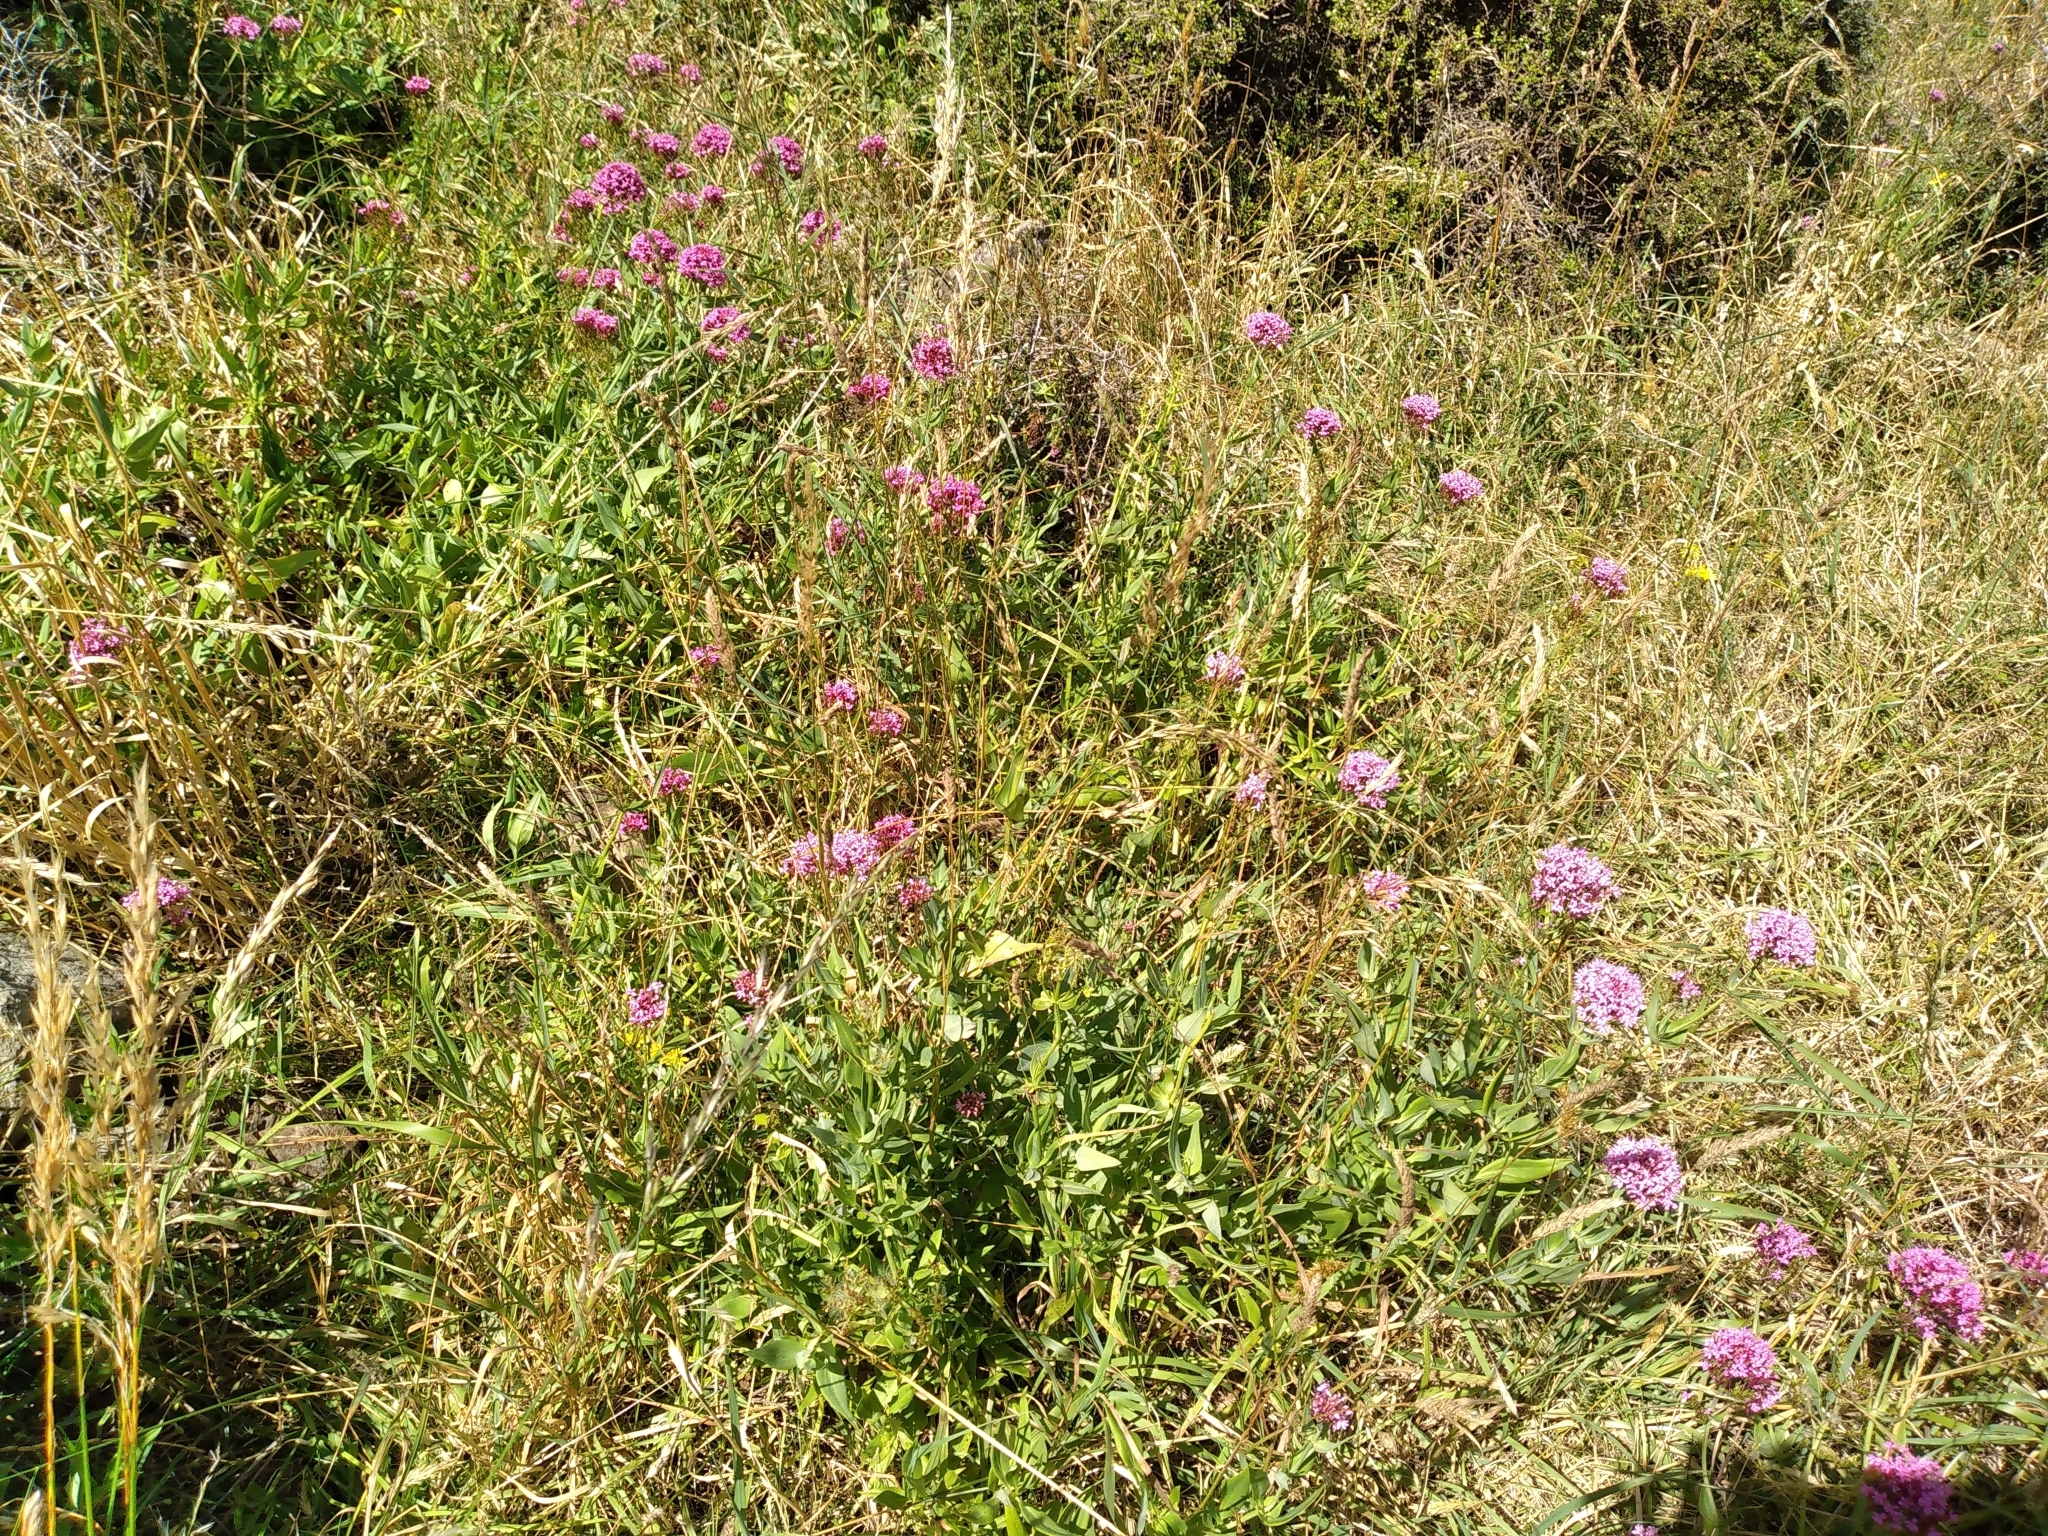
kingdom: Plantae
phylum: Tracheophyta
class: Magnoliopsida
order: Dipsacales
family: Caprifoliaceae
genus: Centranthus
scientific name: Centranthus ruber
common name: Red valerian
